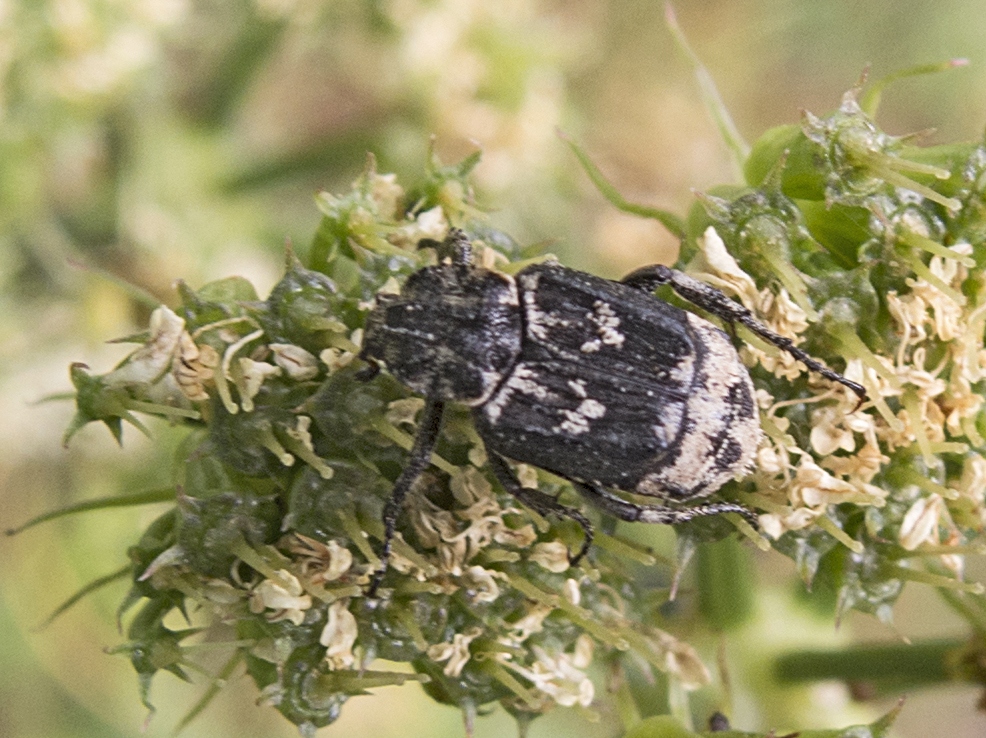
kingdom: Animalia
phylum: Arthropoda
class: Insecta
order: Coleoptera
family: Scarabaeidae
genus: Valgus
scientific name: Valgus hemipterus
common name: Bug flower chafer
